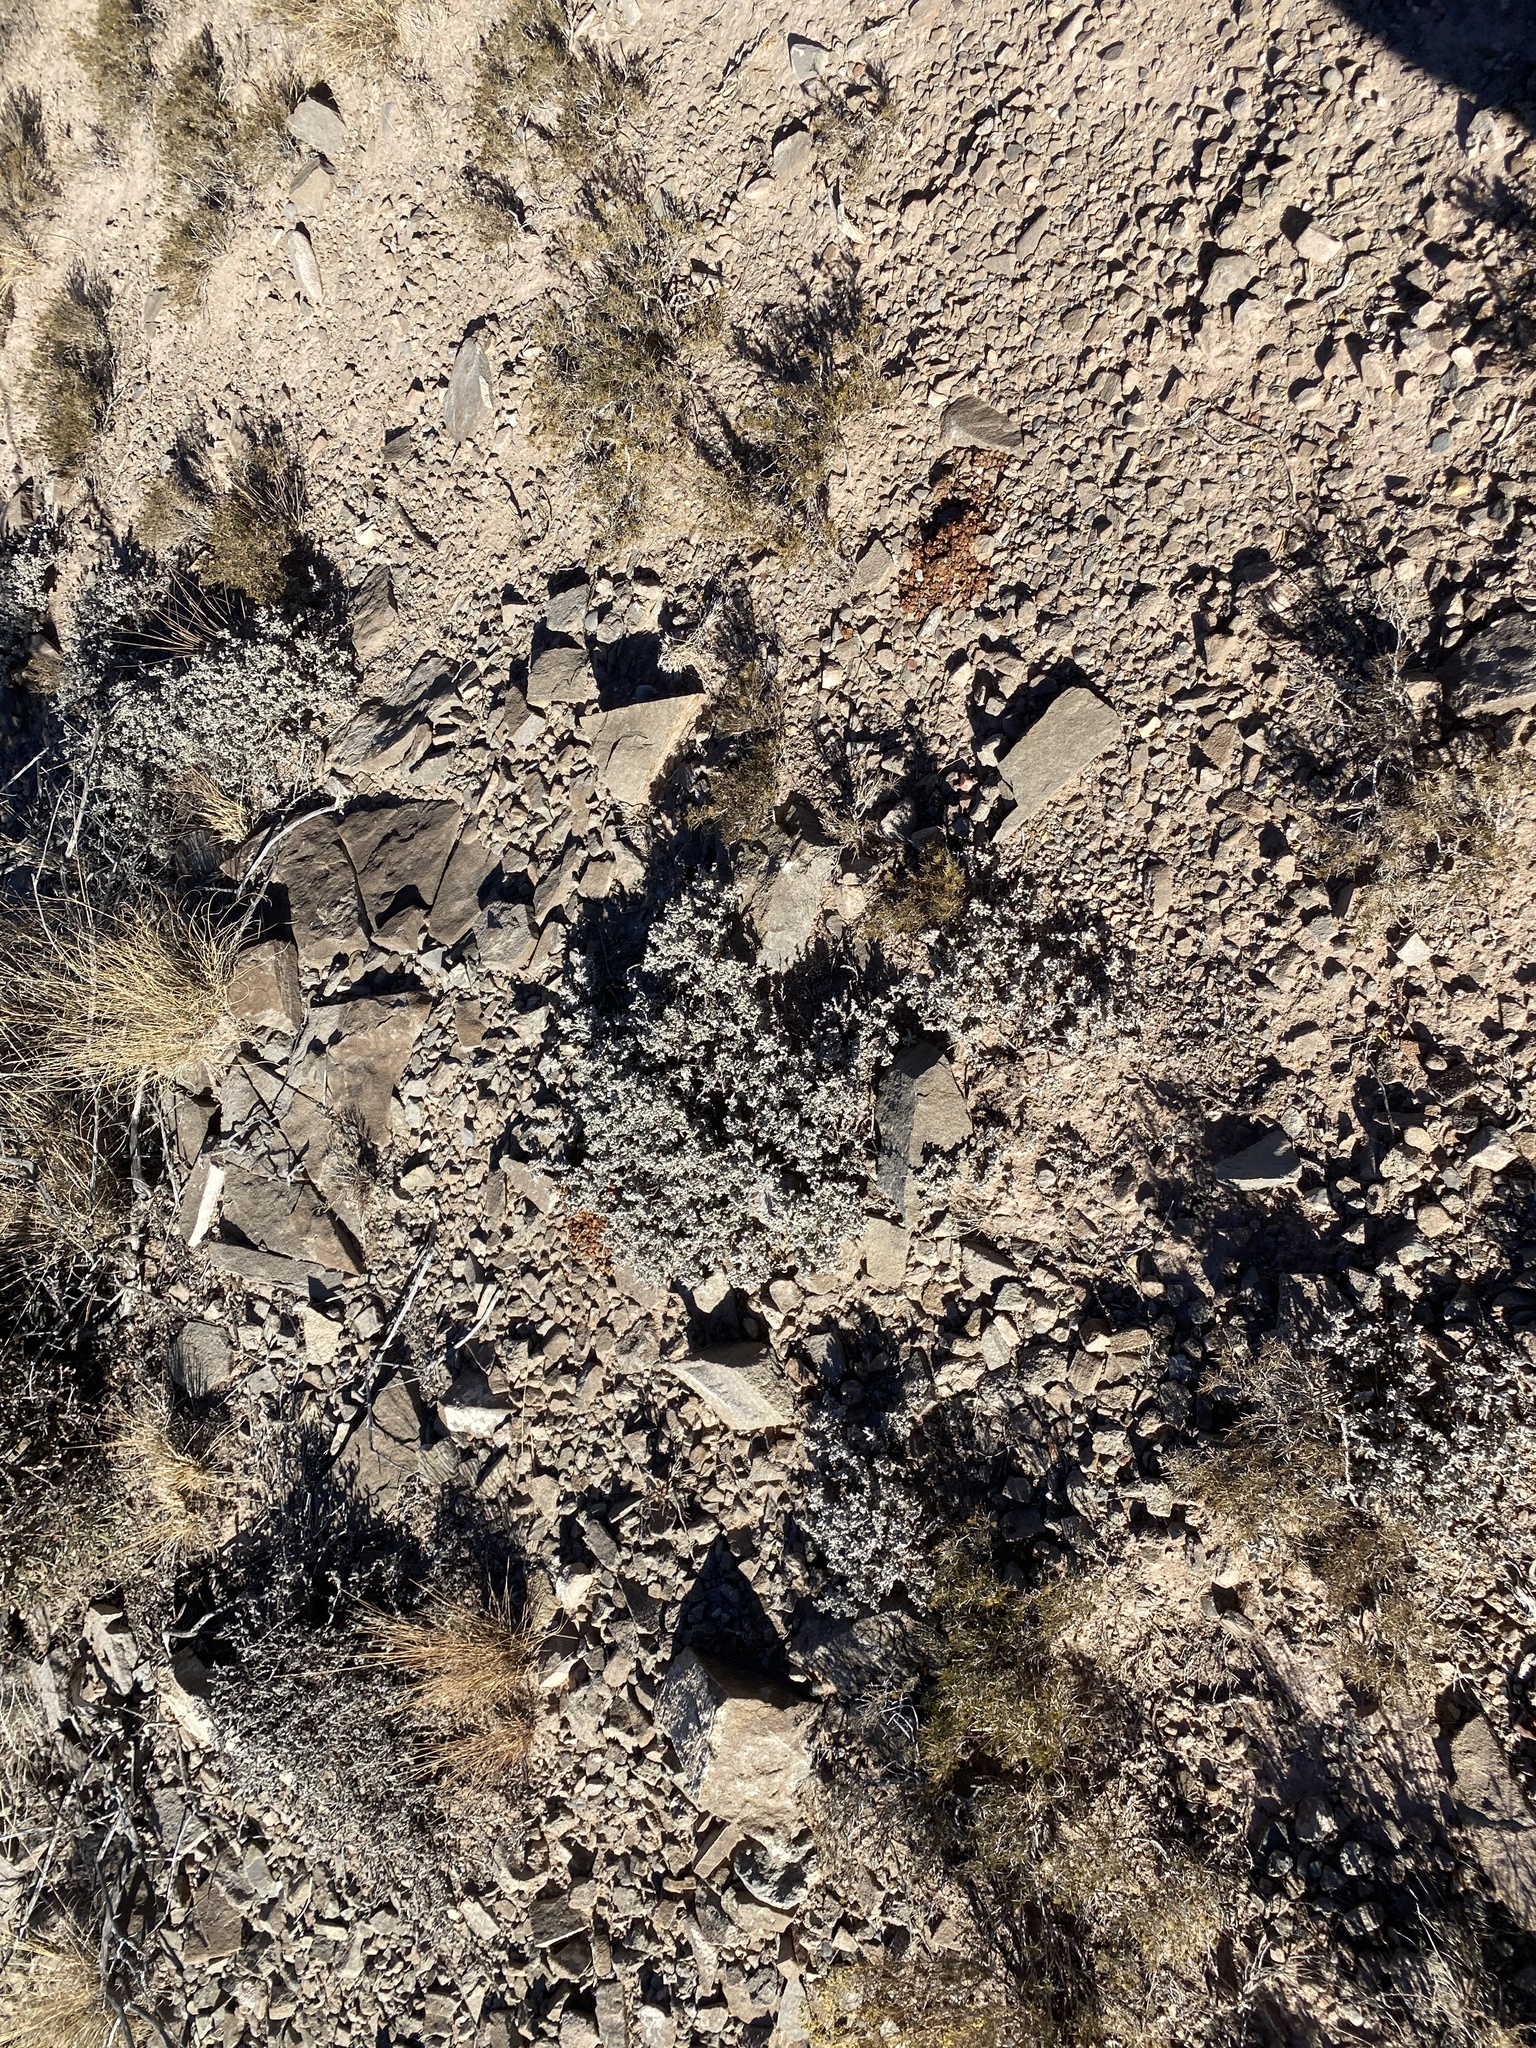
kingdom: Plantae
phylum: Tracheophyta
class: Magnoliopsida
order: Boraginales
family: Ehretiaceae
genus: Tiquilia
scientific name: Tiquilia canescens
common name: Hairy tiquilia
